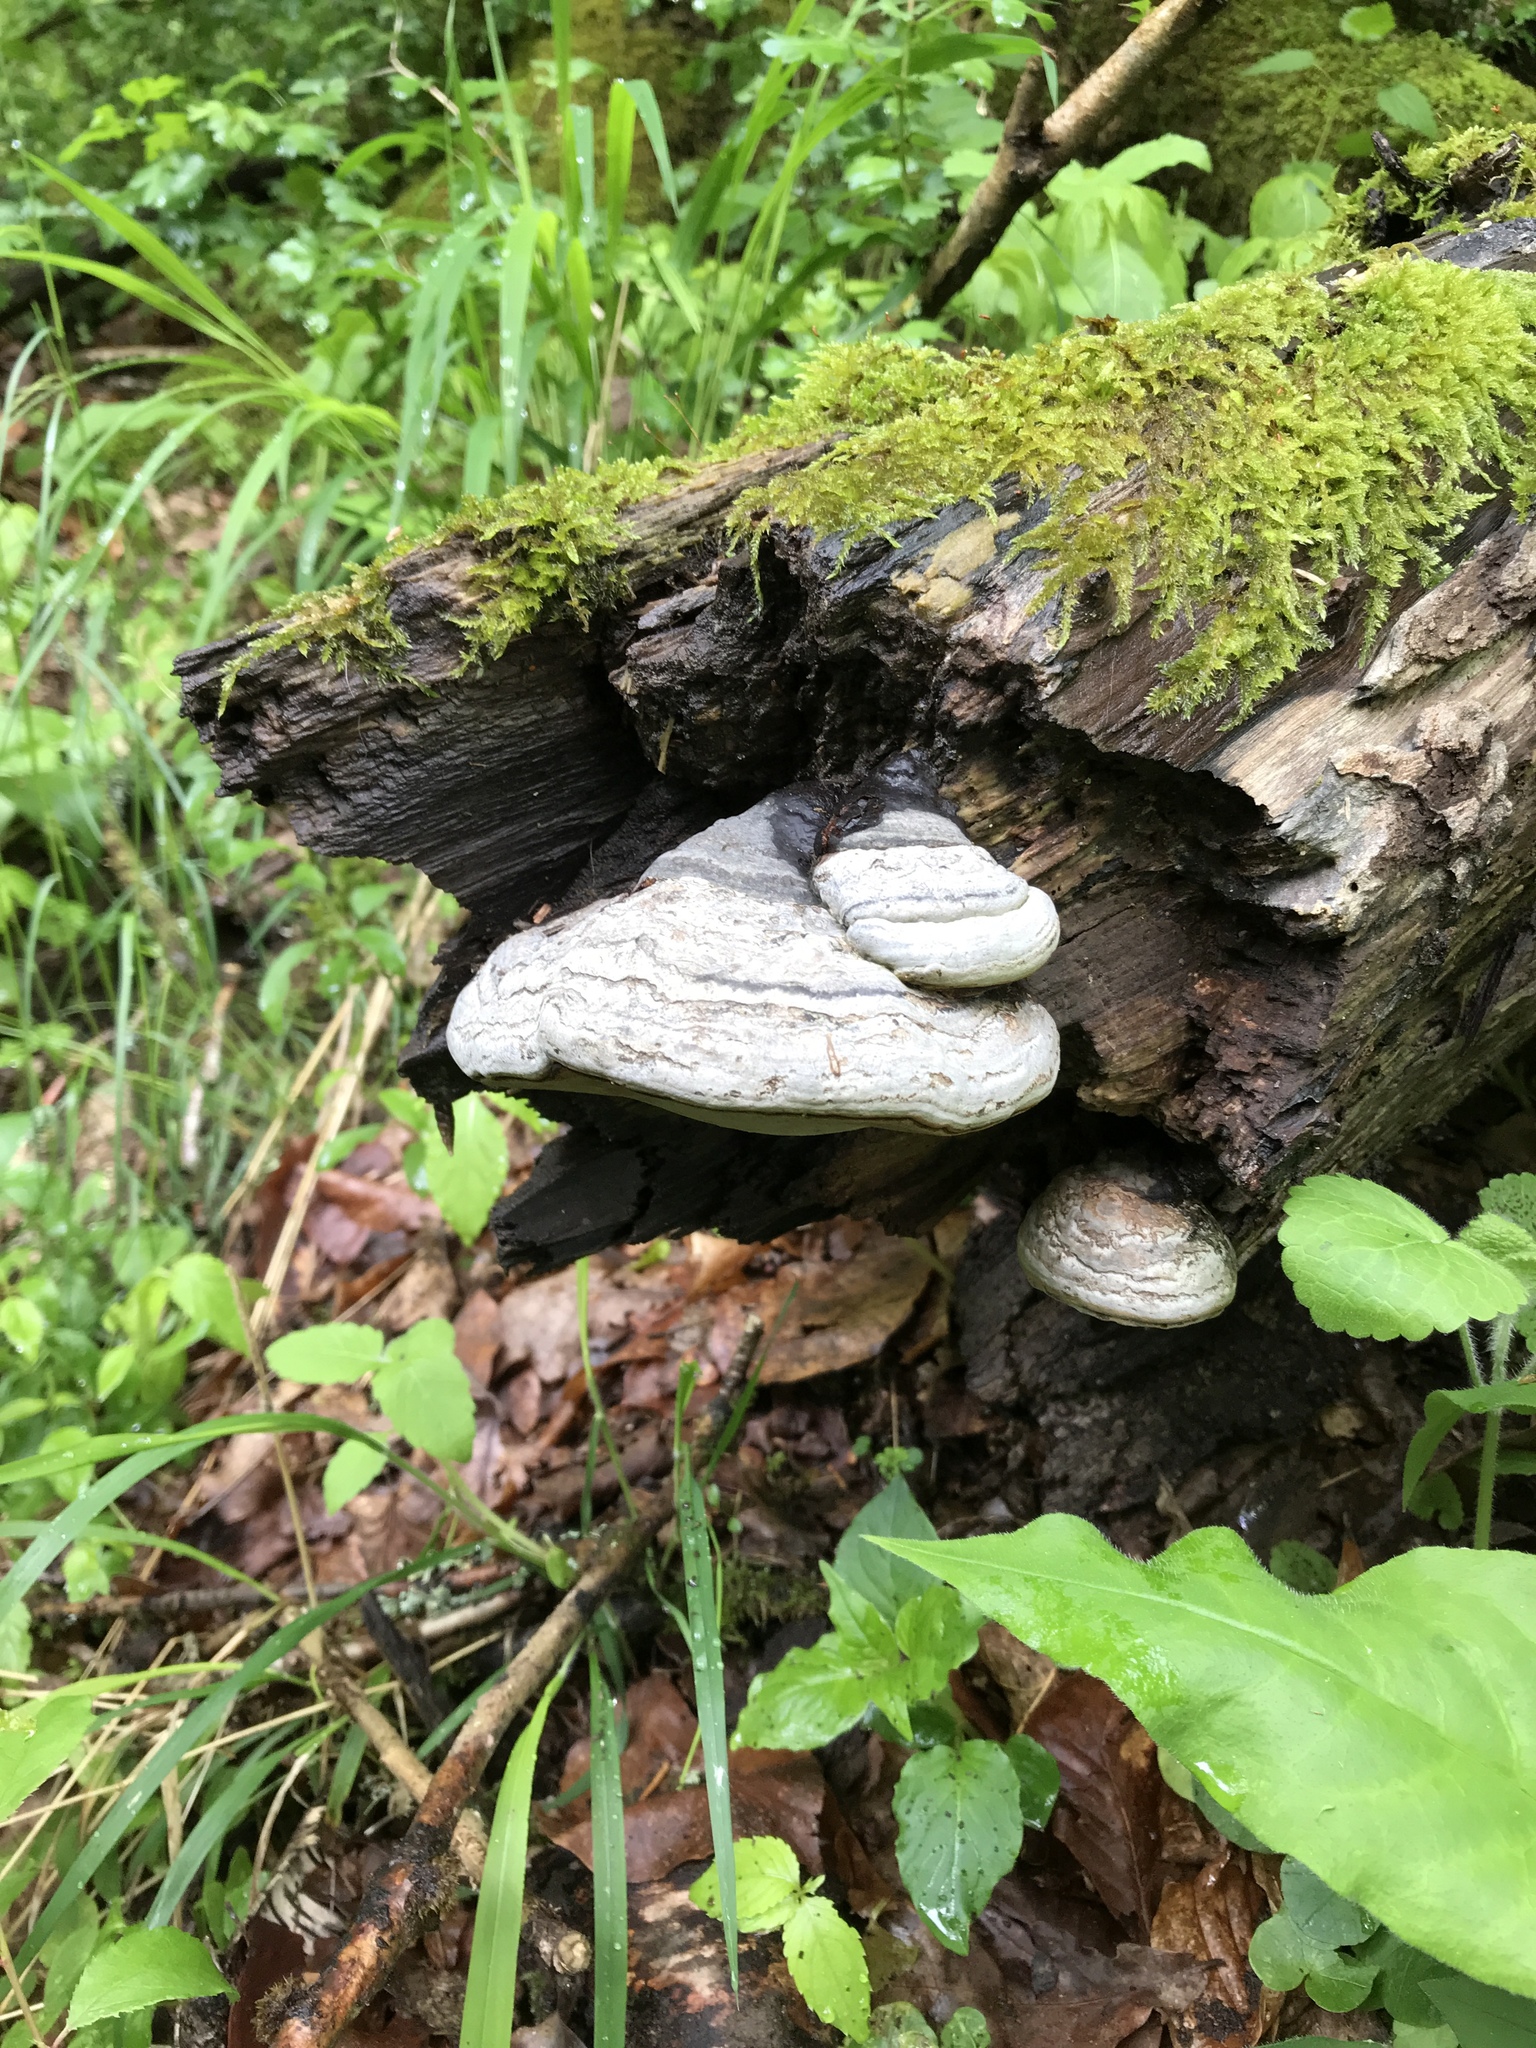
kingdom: Fungi
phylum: Basidiomycota
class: Agaricomycetes
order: Polyporales
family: Polyporaceae
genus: Fomes
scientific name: Fomes fomentarius
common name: Hoof fungus
